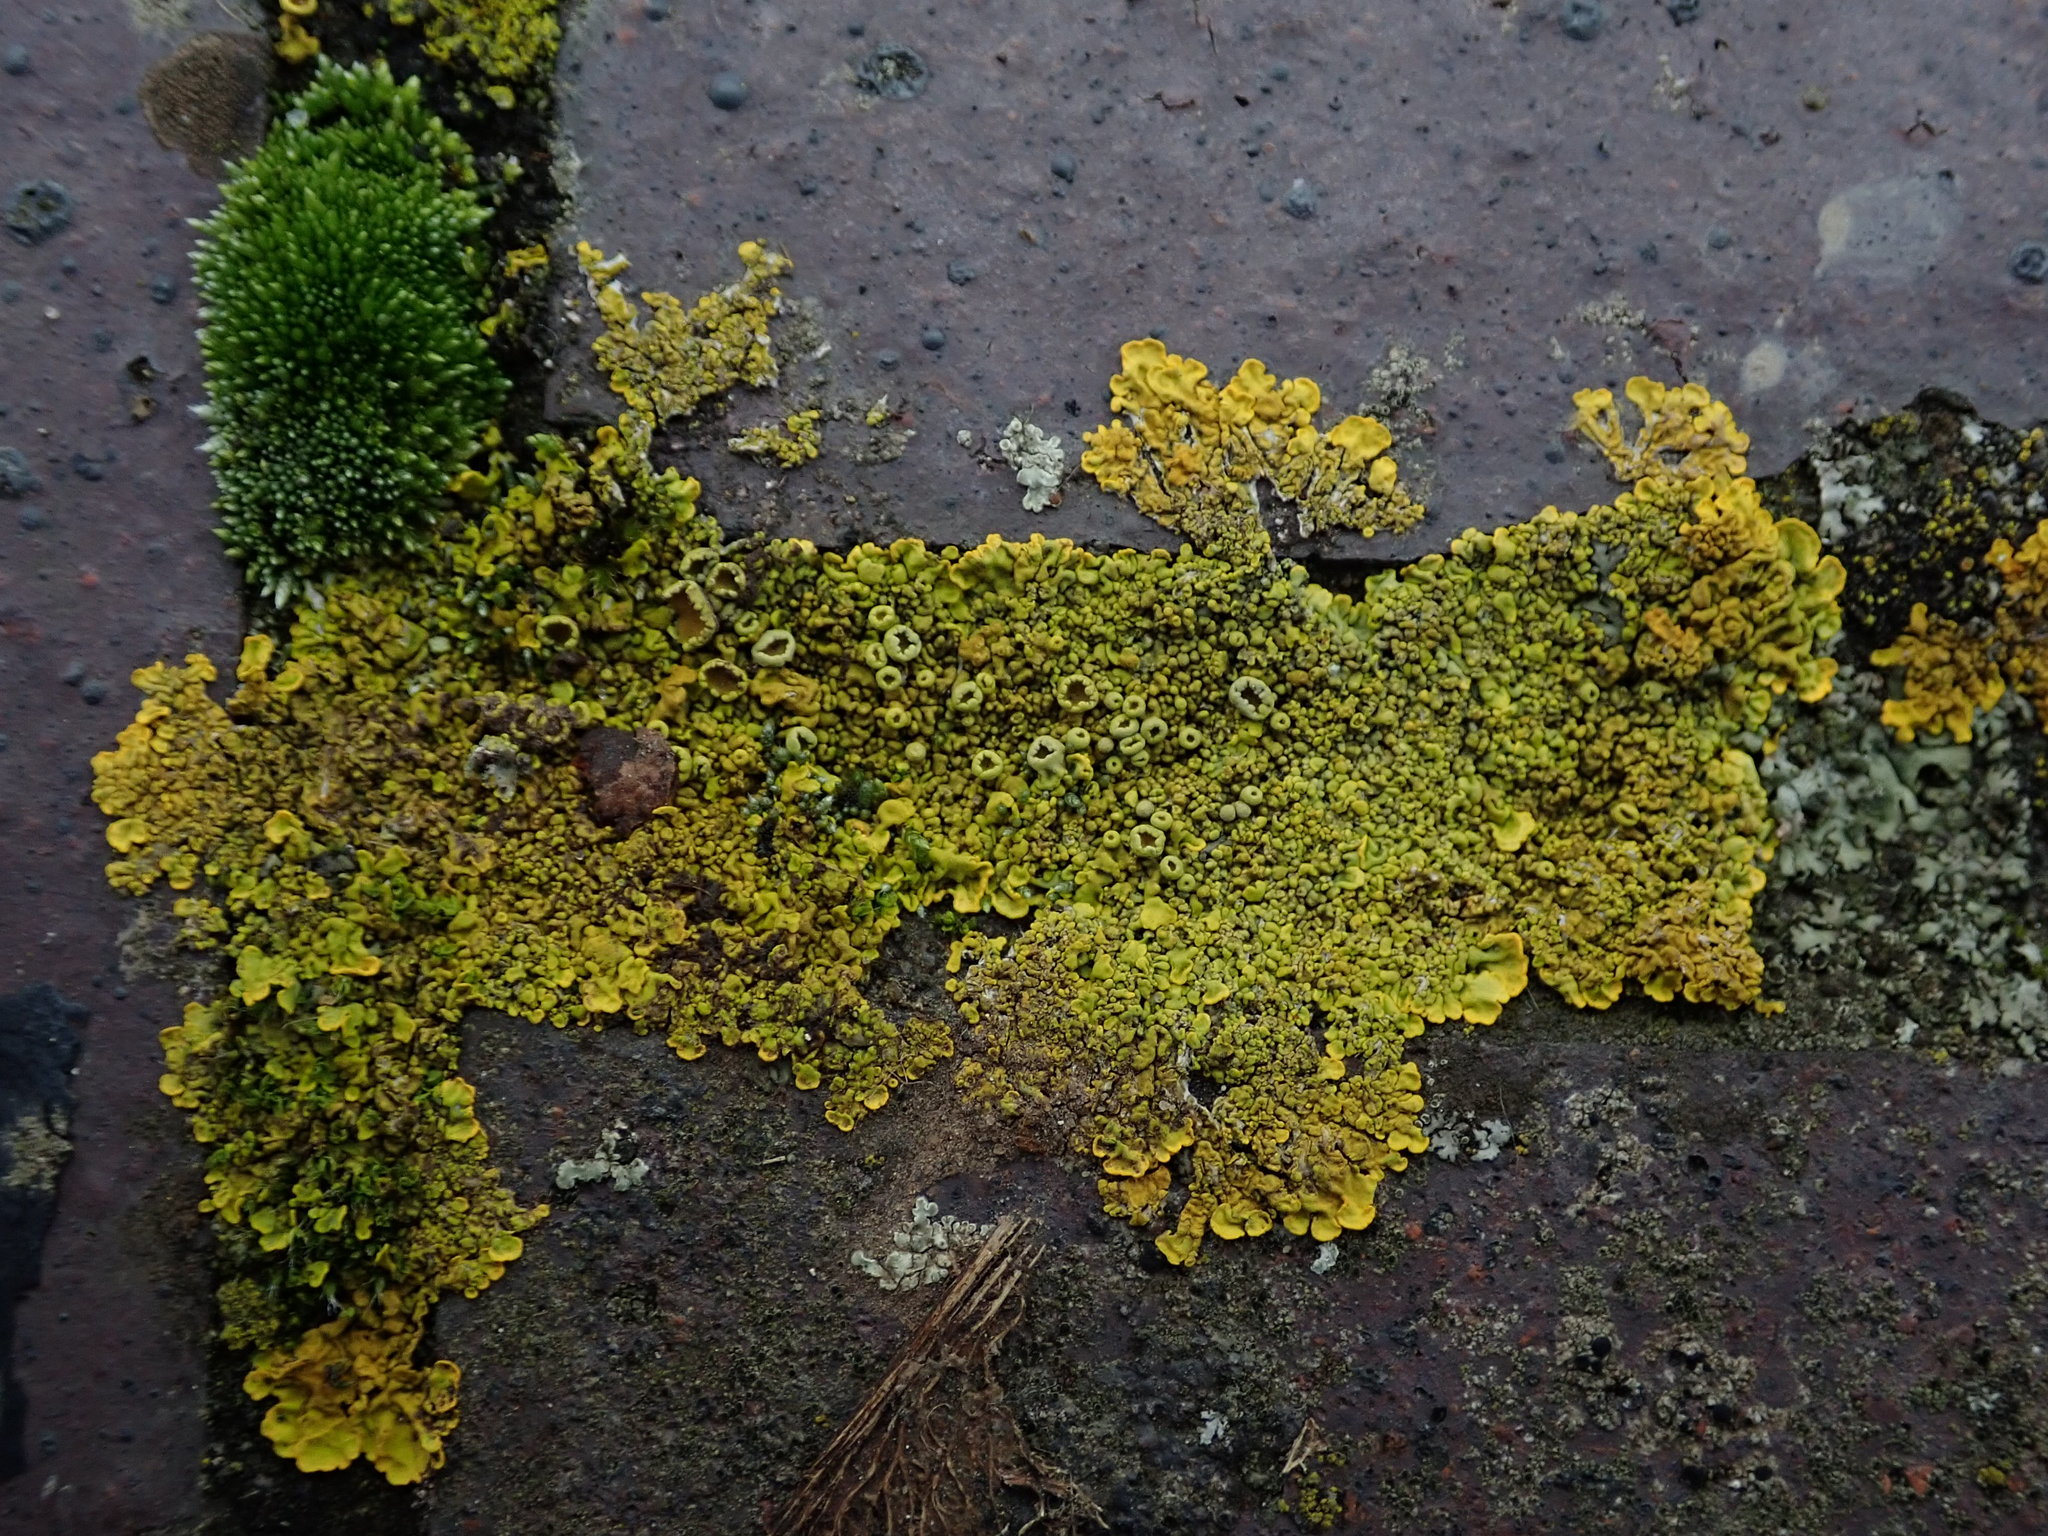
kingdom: Fungi
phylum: Ascomycota
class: Lecanoromycetes
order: Teloschistales
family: Teloschistaceae
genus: Xanthoria
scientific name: Xanthoria calcicola
